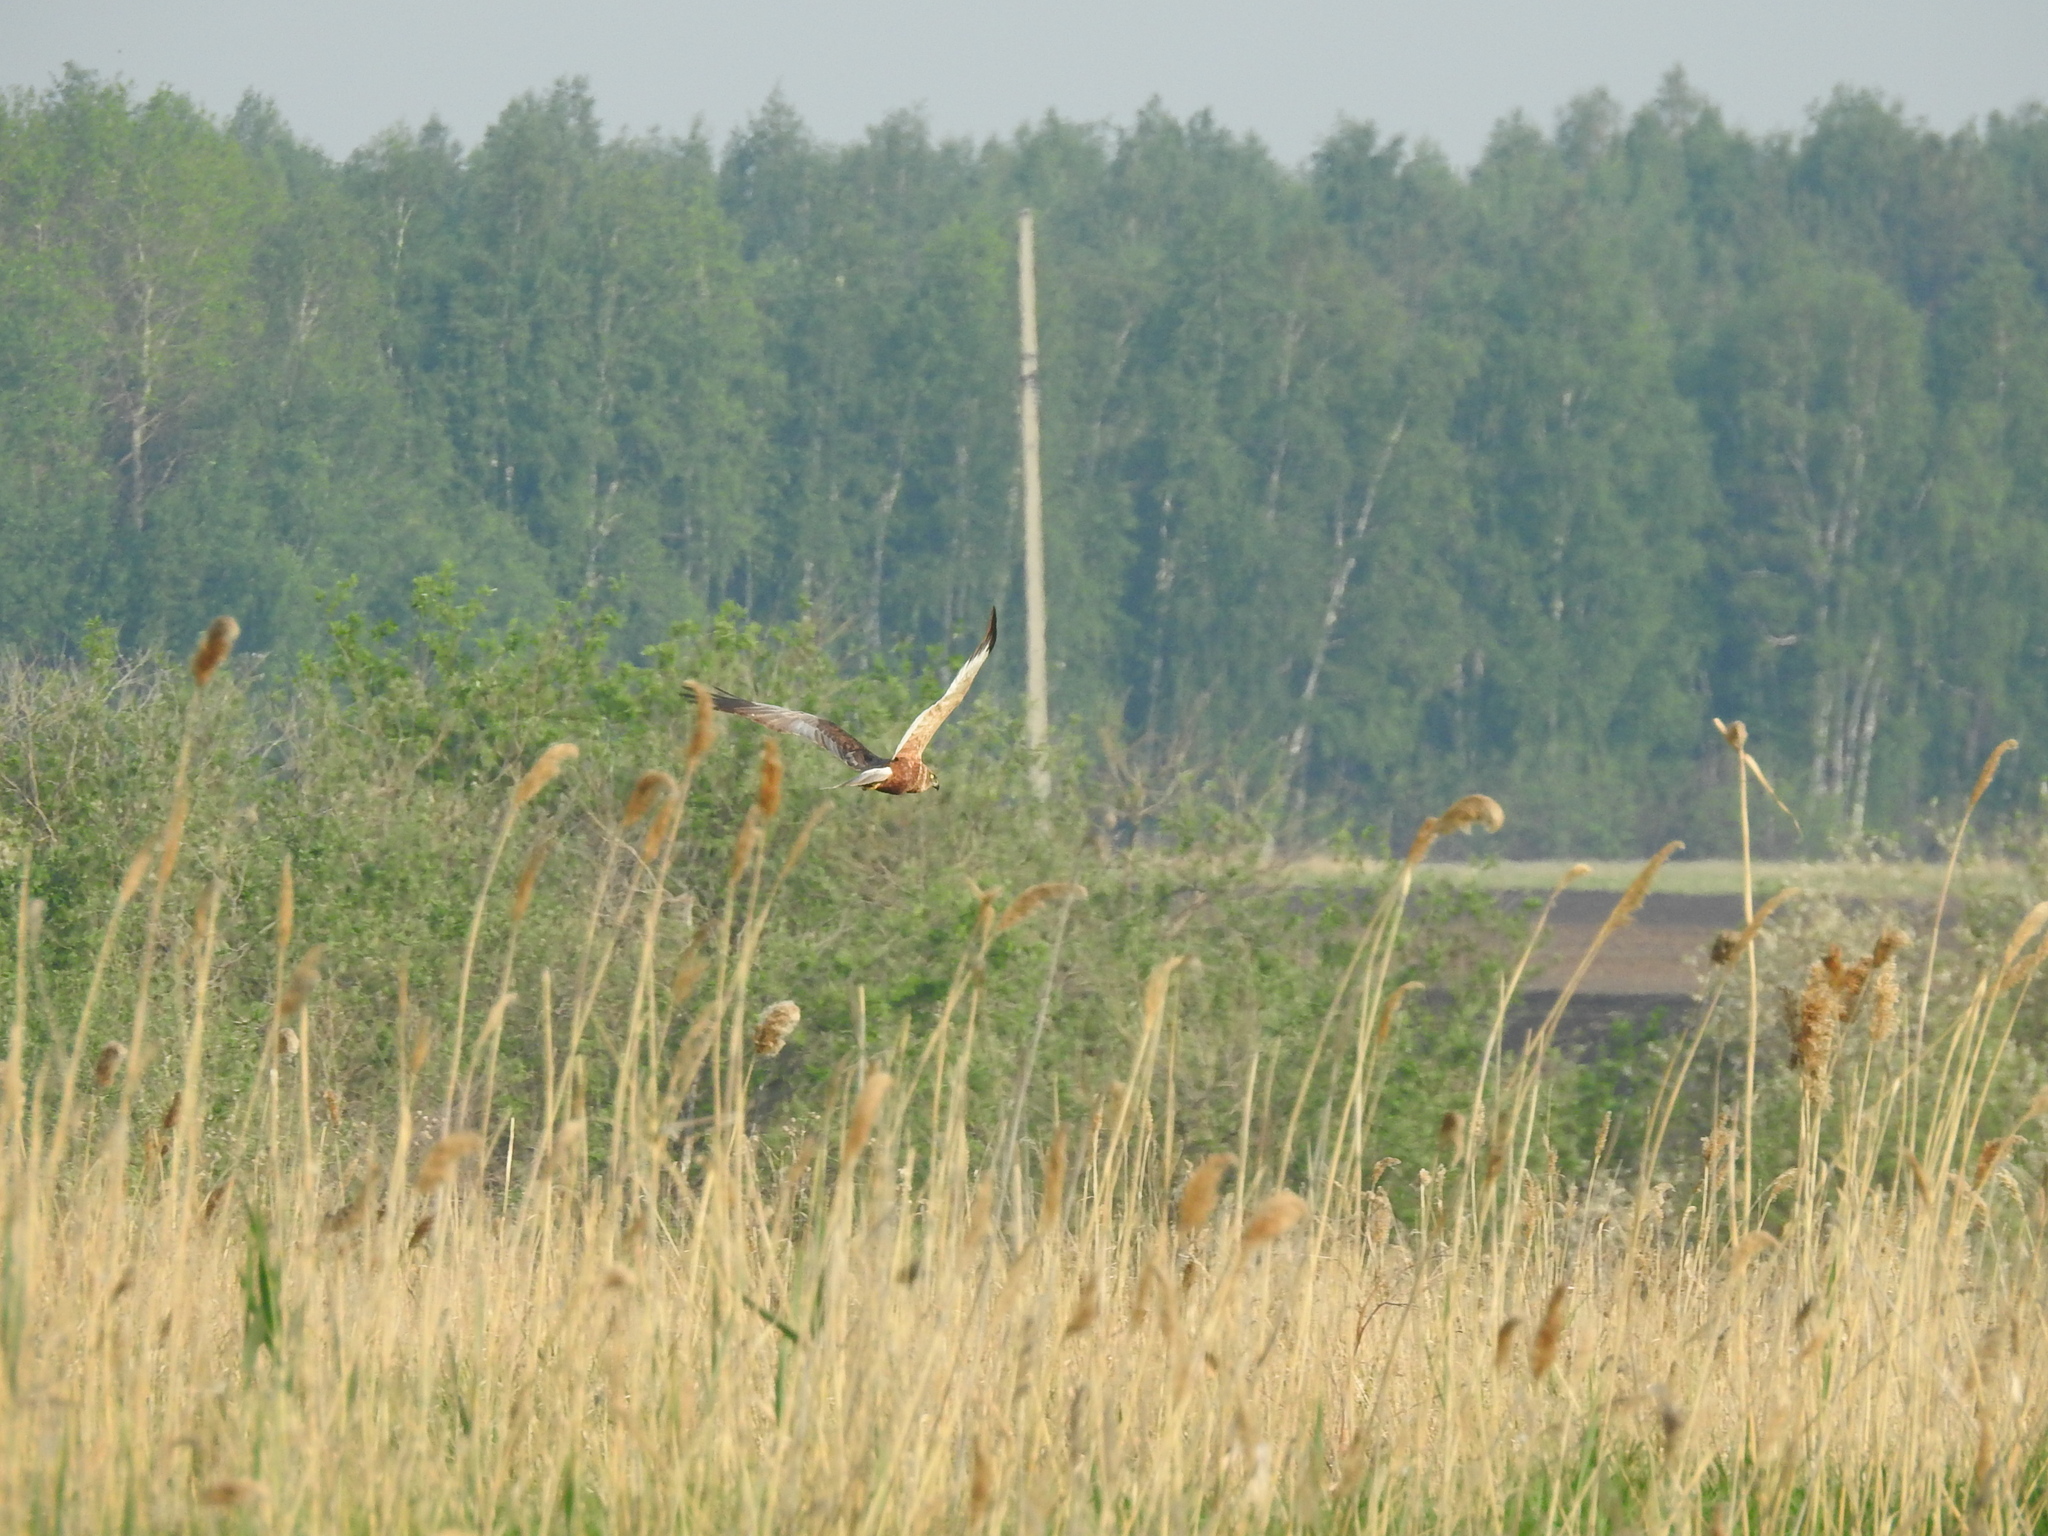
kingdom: Animalia
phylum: Chordata
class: Aves
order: Accipitriformes
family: Accipitridae
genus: Circus
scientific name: Circus aeruginosus
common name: Western marsh harrier
